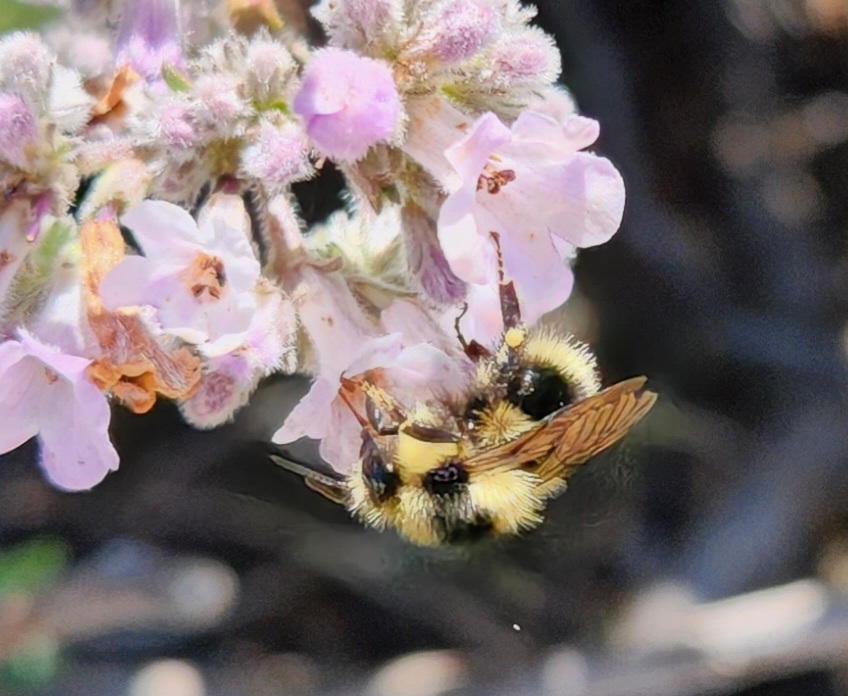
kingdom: Animalia
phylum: Arthropoda
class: Insecta
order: Hymenoptera
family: Apidae
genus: Bombus
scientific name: Bombus melanopygus
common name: Black tail bumble bee
